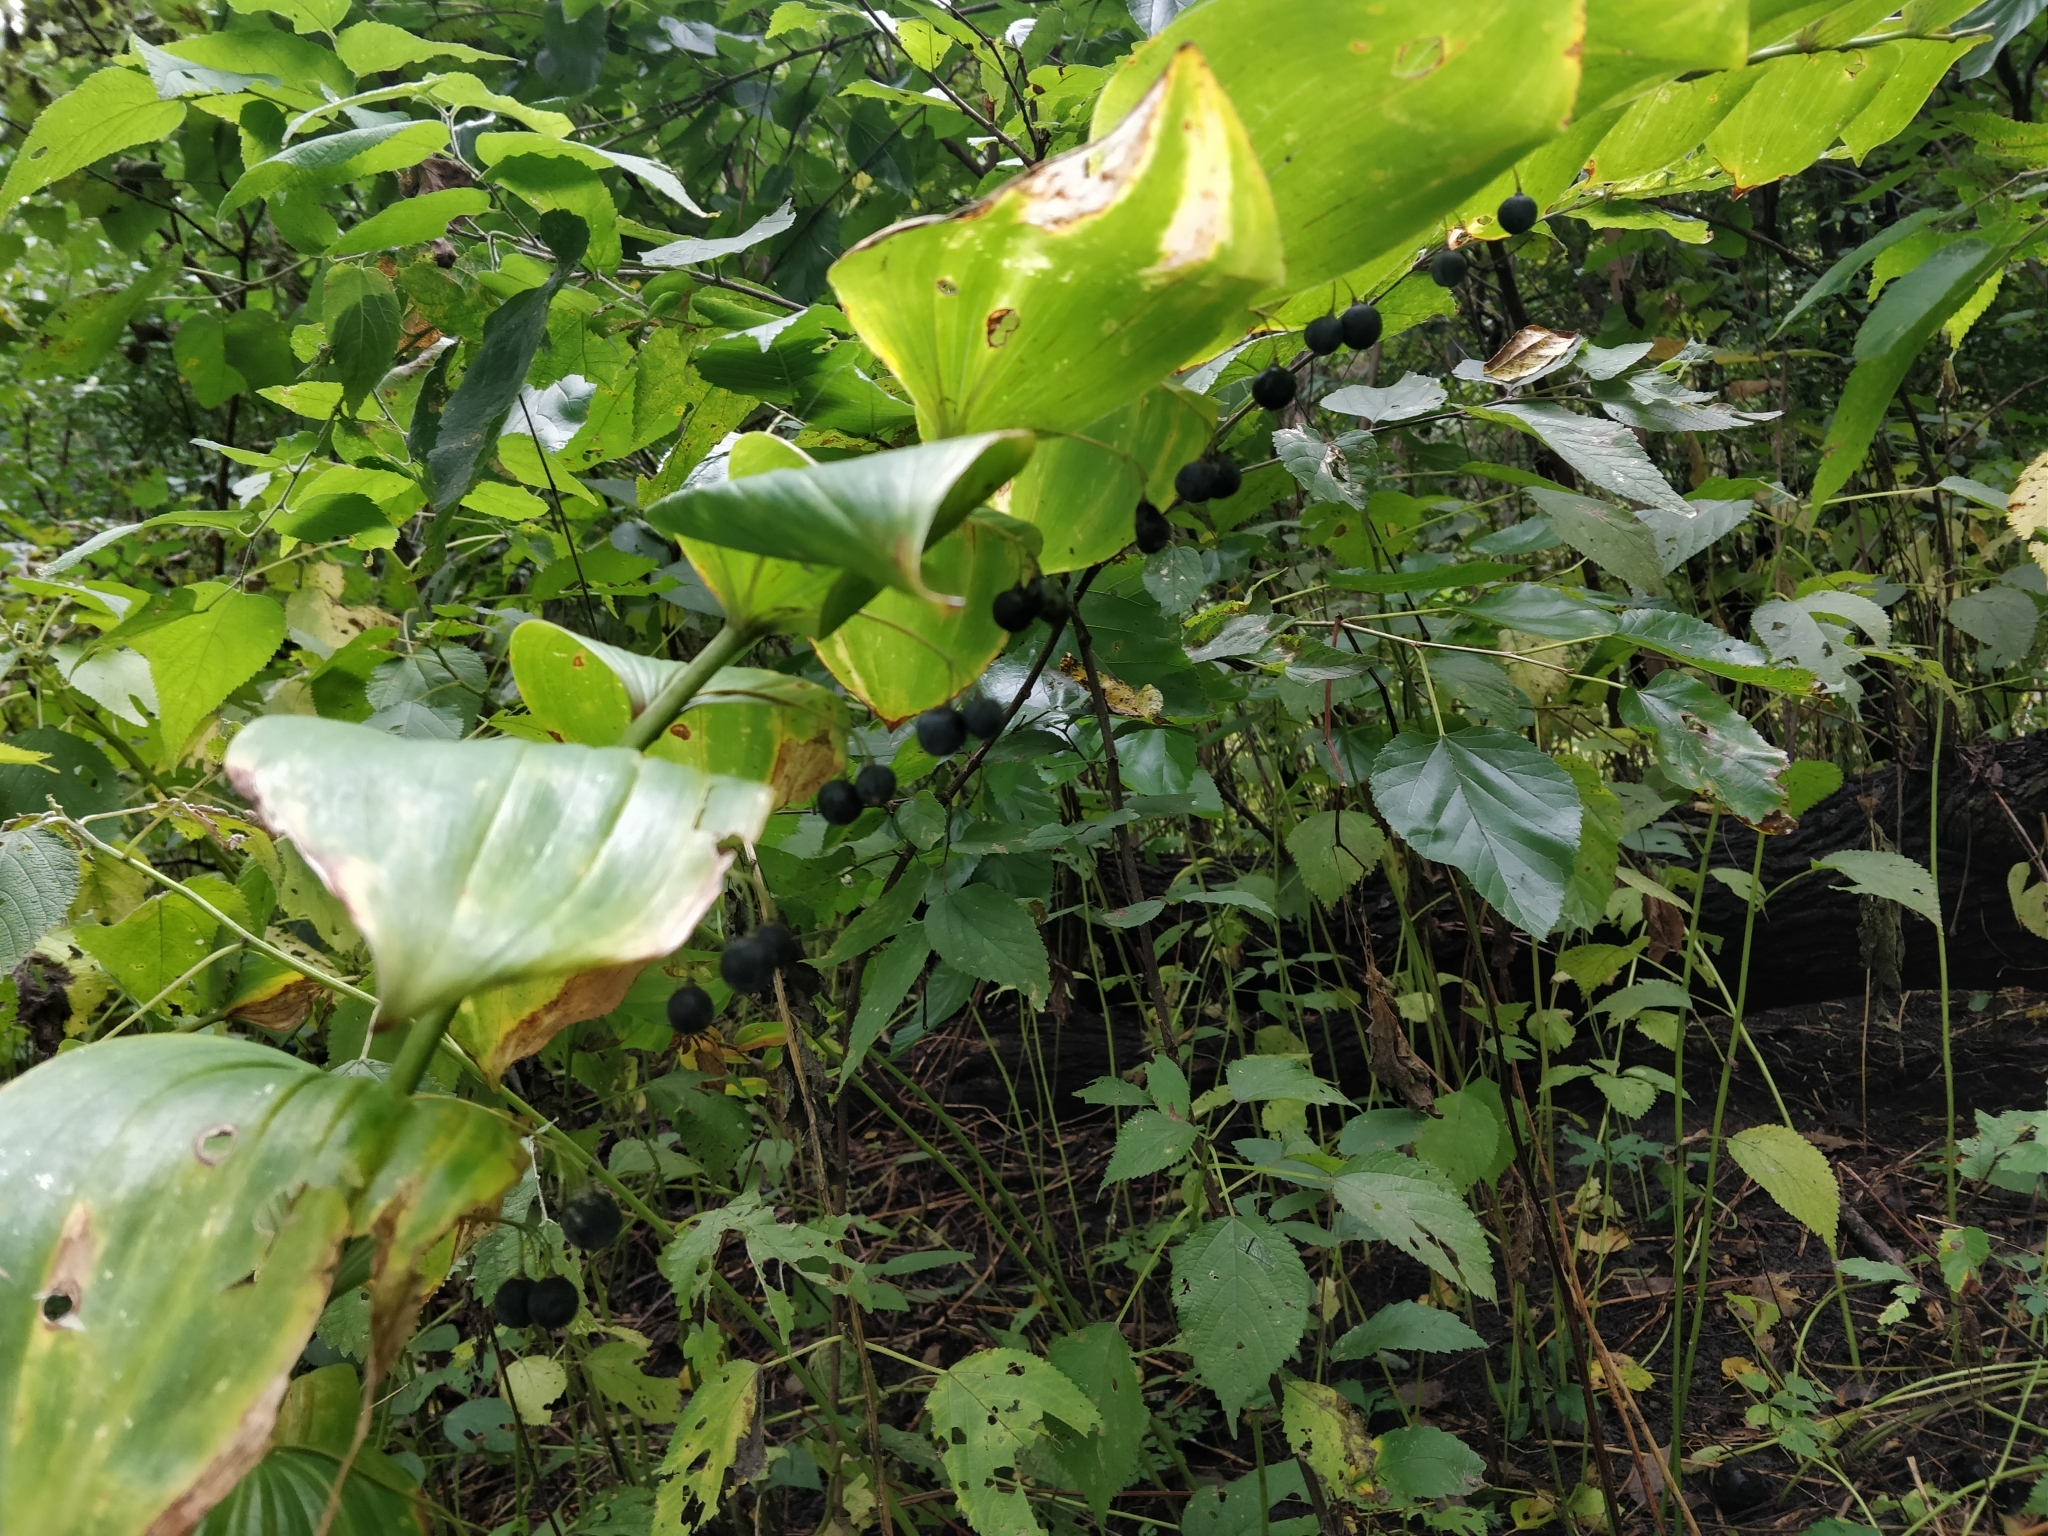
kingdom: Plantae
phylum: Tracheophyta
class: Liliopsida
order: Asparagales
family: Asparagaceae
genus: Polygonatum
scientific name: Polygonatum biflorum
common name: American solomon's-seal
